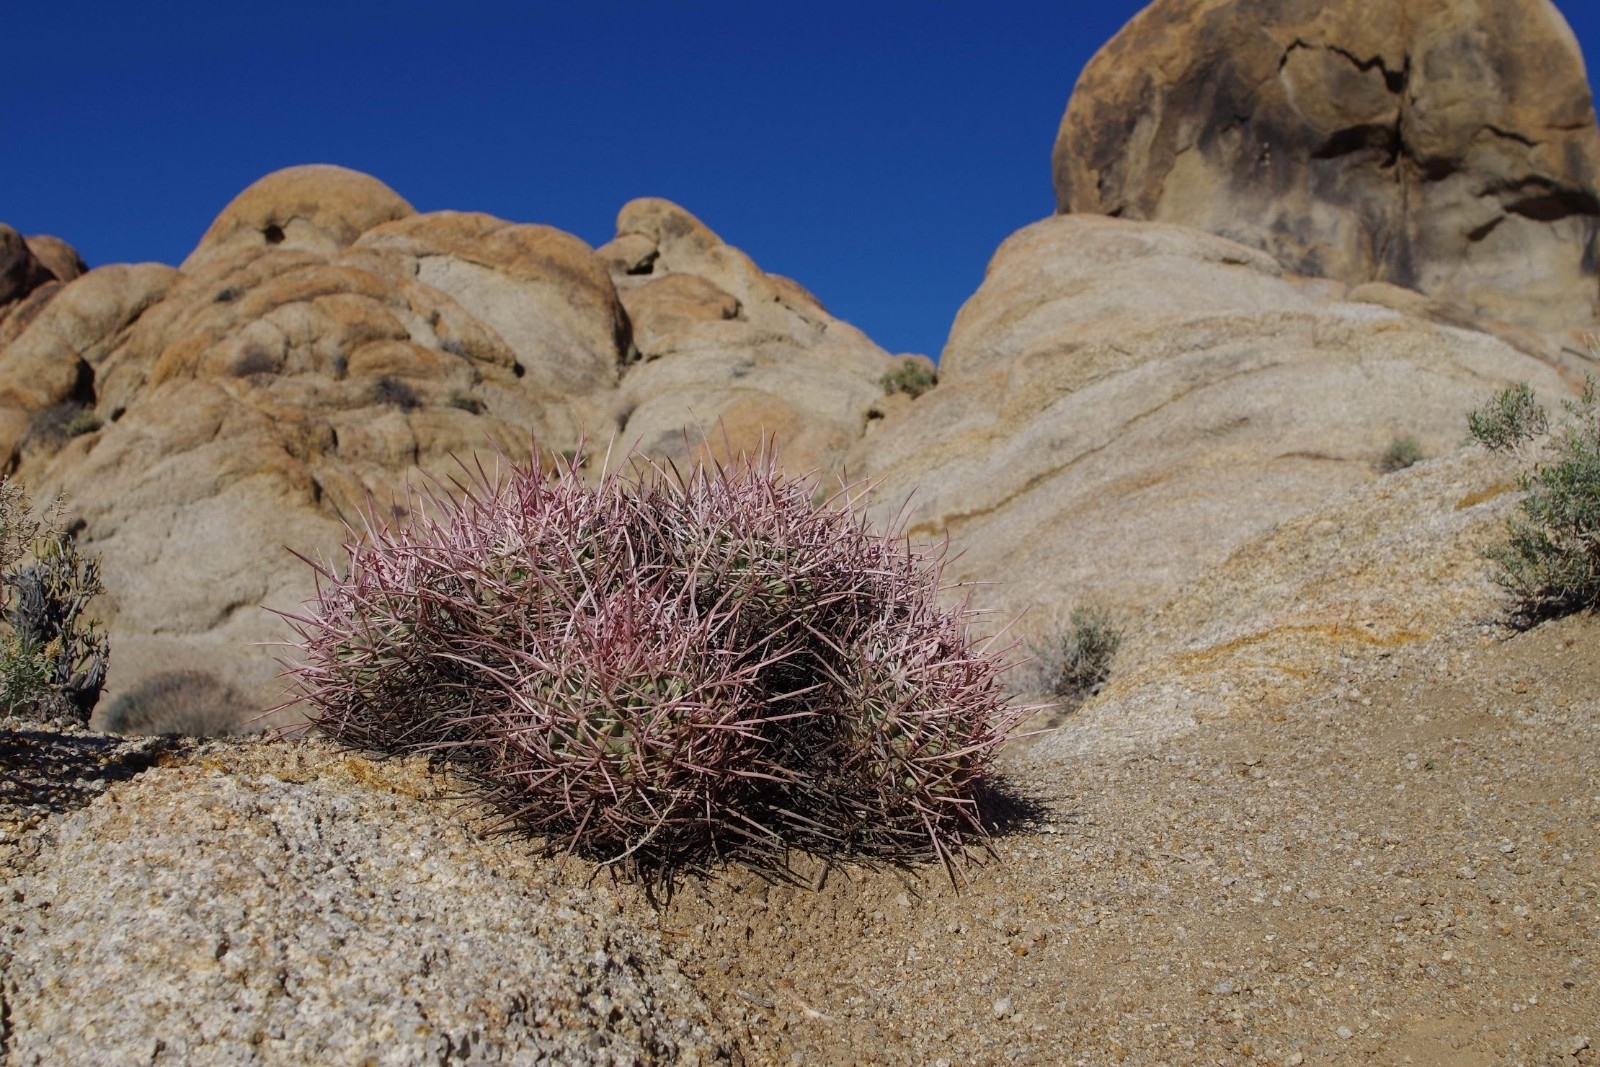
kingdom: Plantae
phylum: Tracheophyta
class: Magnoliopsida
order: Caryophyllales
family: Cactaceae
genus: Echinocactus
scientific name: Echinocactus polycephalus
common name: Cottontop cactus
